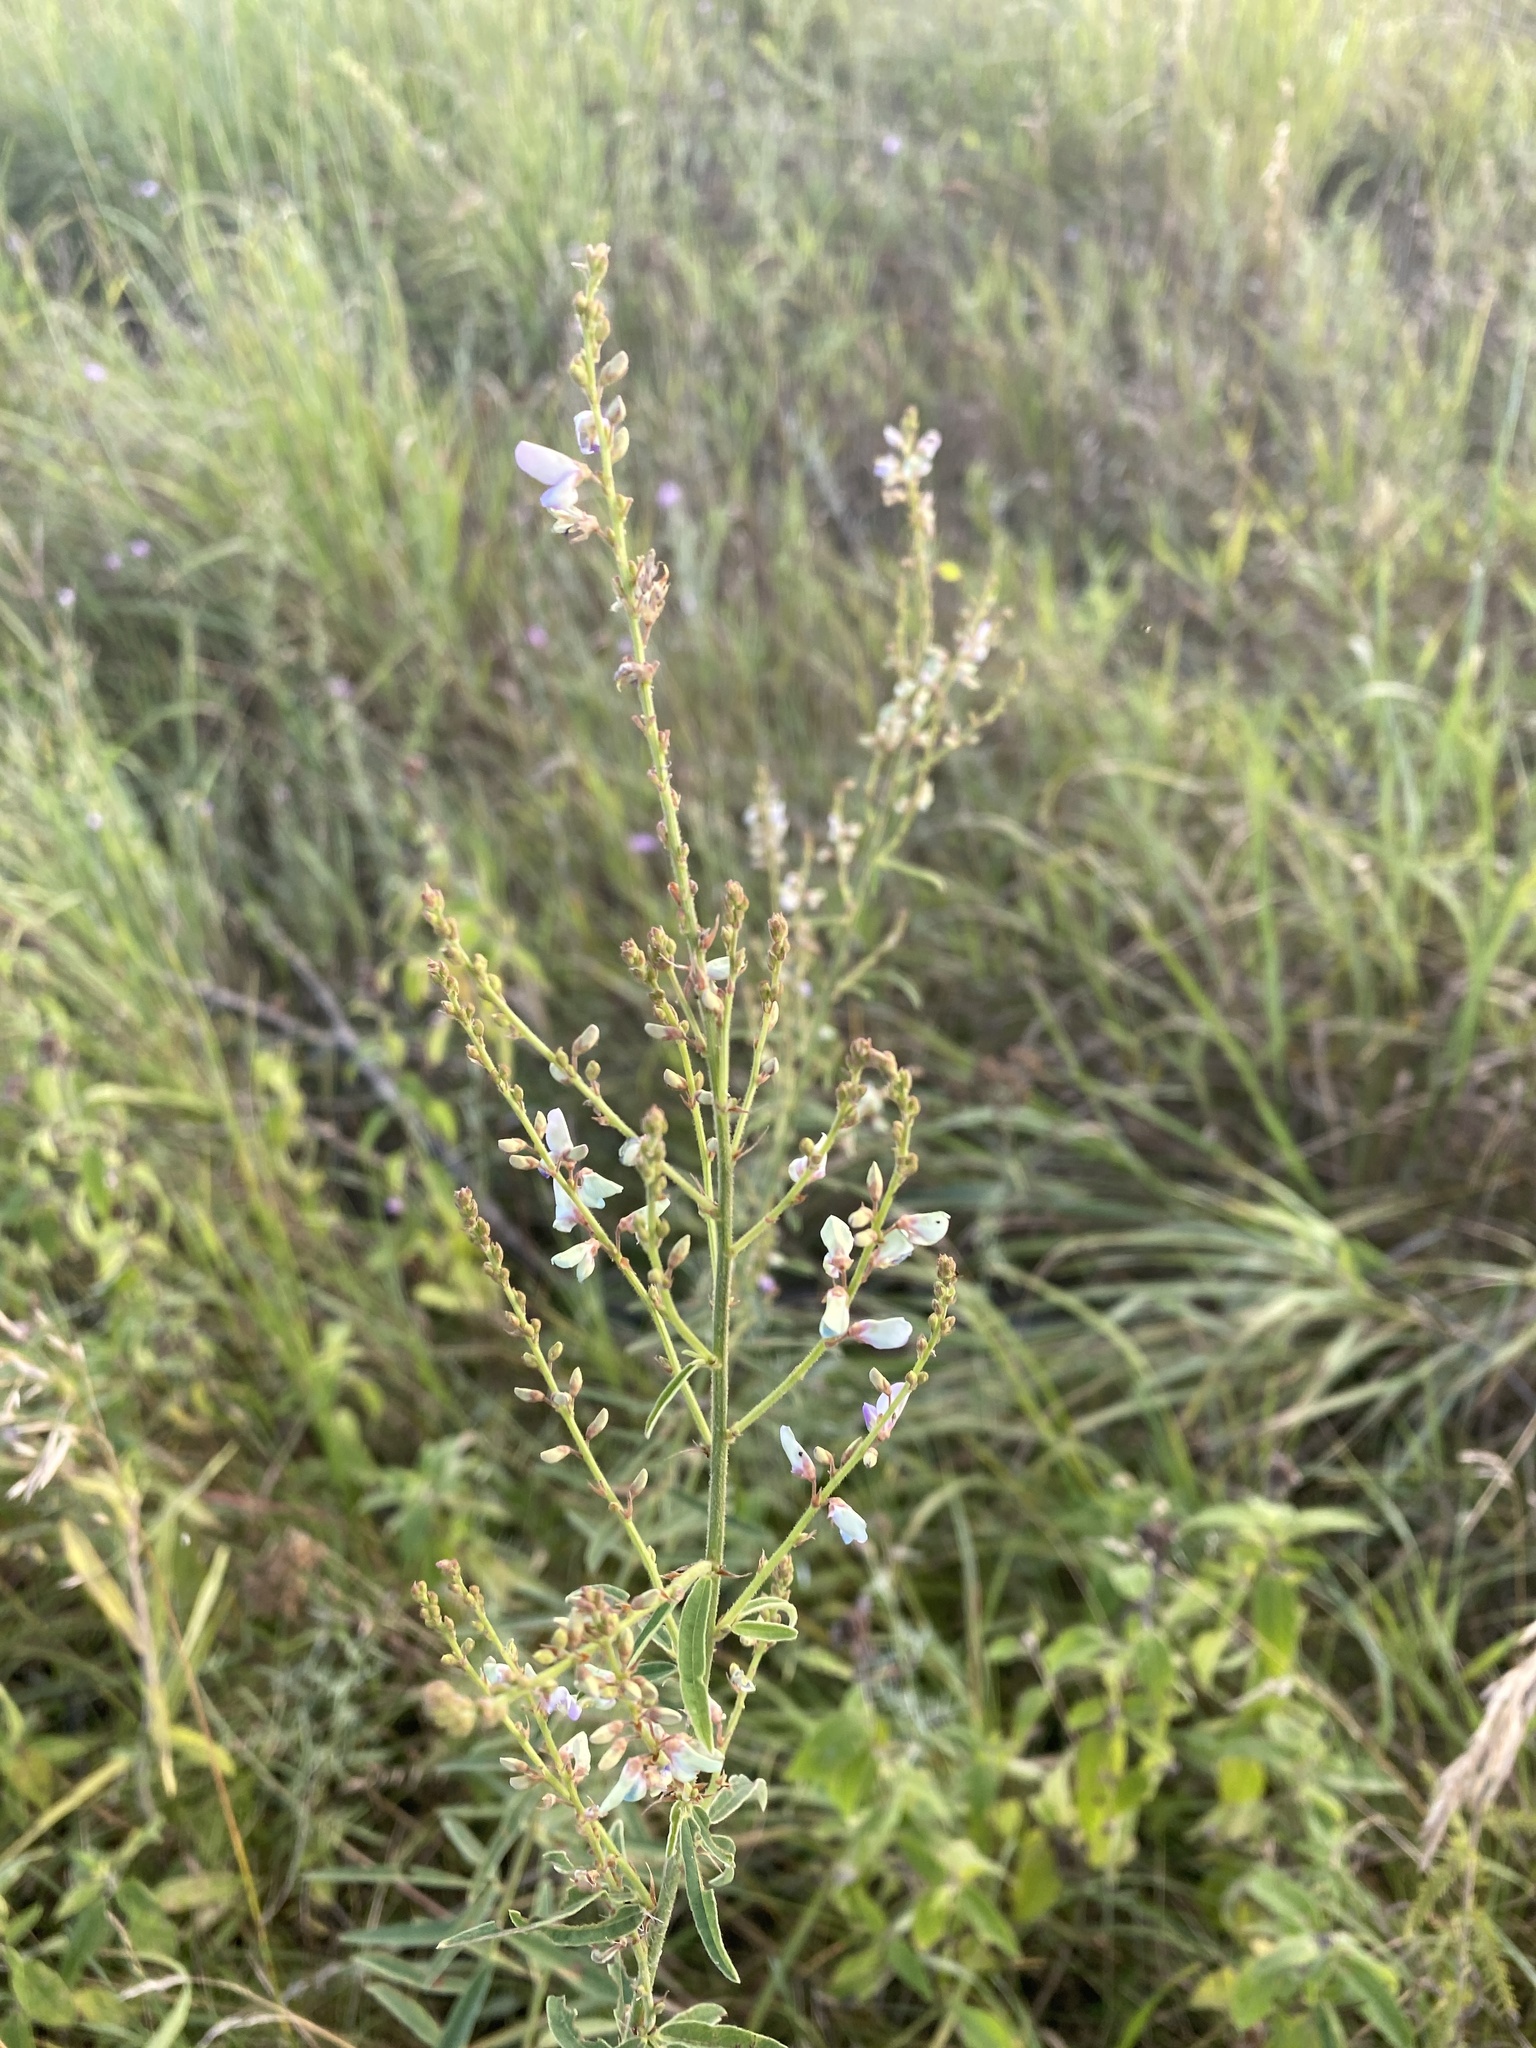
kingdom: Plantae
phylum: Tracheophyta
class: Magnoliopsida
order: Fabales
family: Fabaceae
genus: Desmodium
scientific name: Desmodium sessilifolium
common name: Sessile tick-clover
